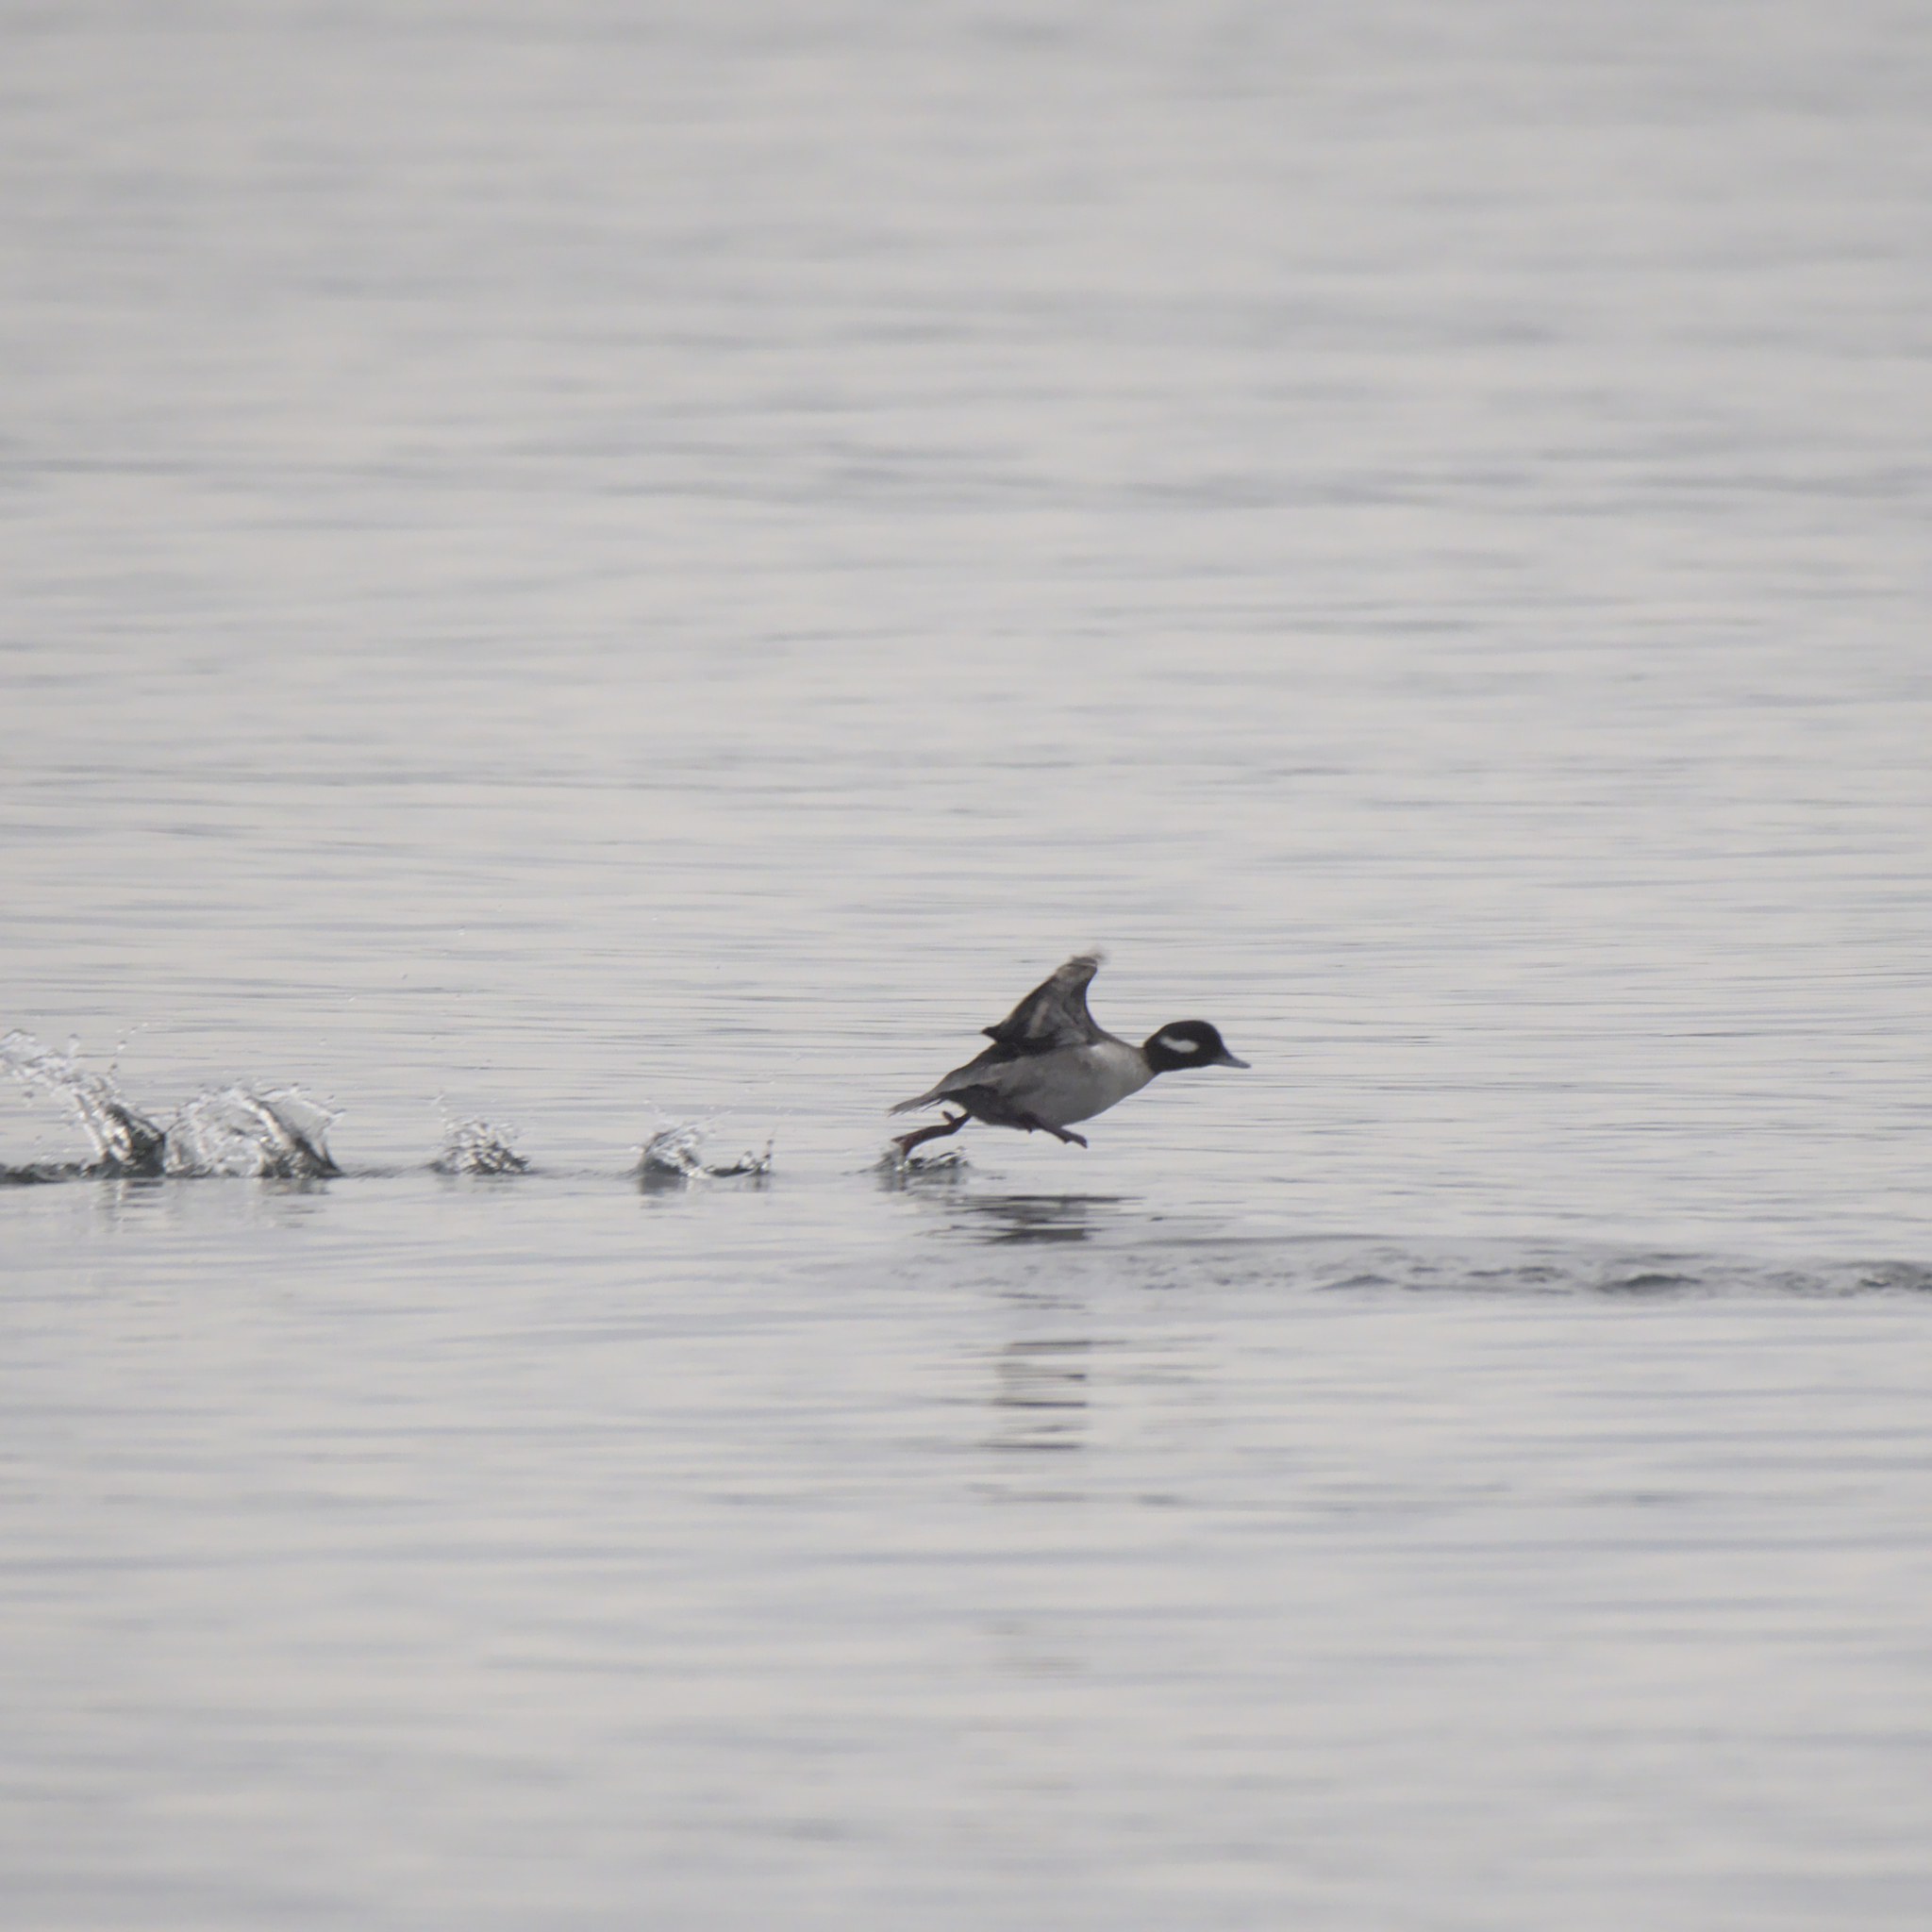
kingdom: Animalia
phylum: Chordata
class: Aves
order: Anseriformes
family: Anatidae
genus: Bucephala
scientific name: Bucephala albeola
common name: Bufflehead
